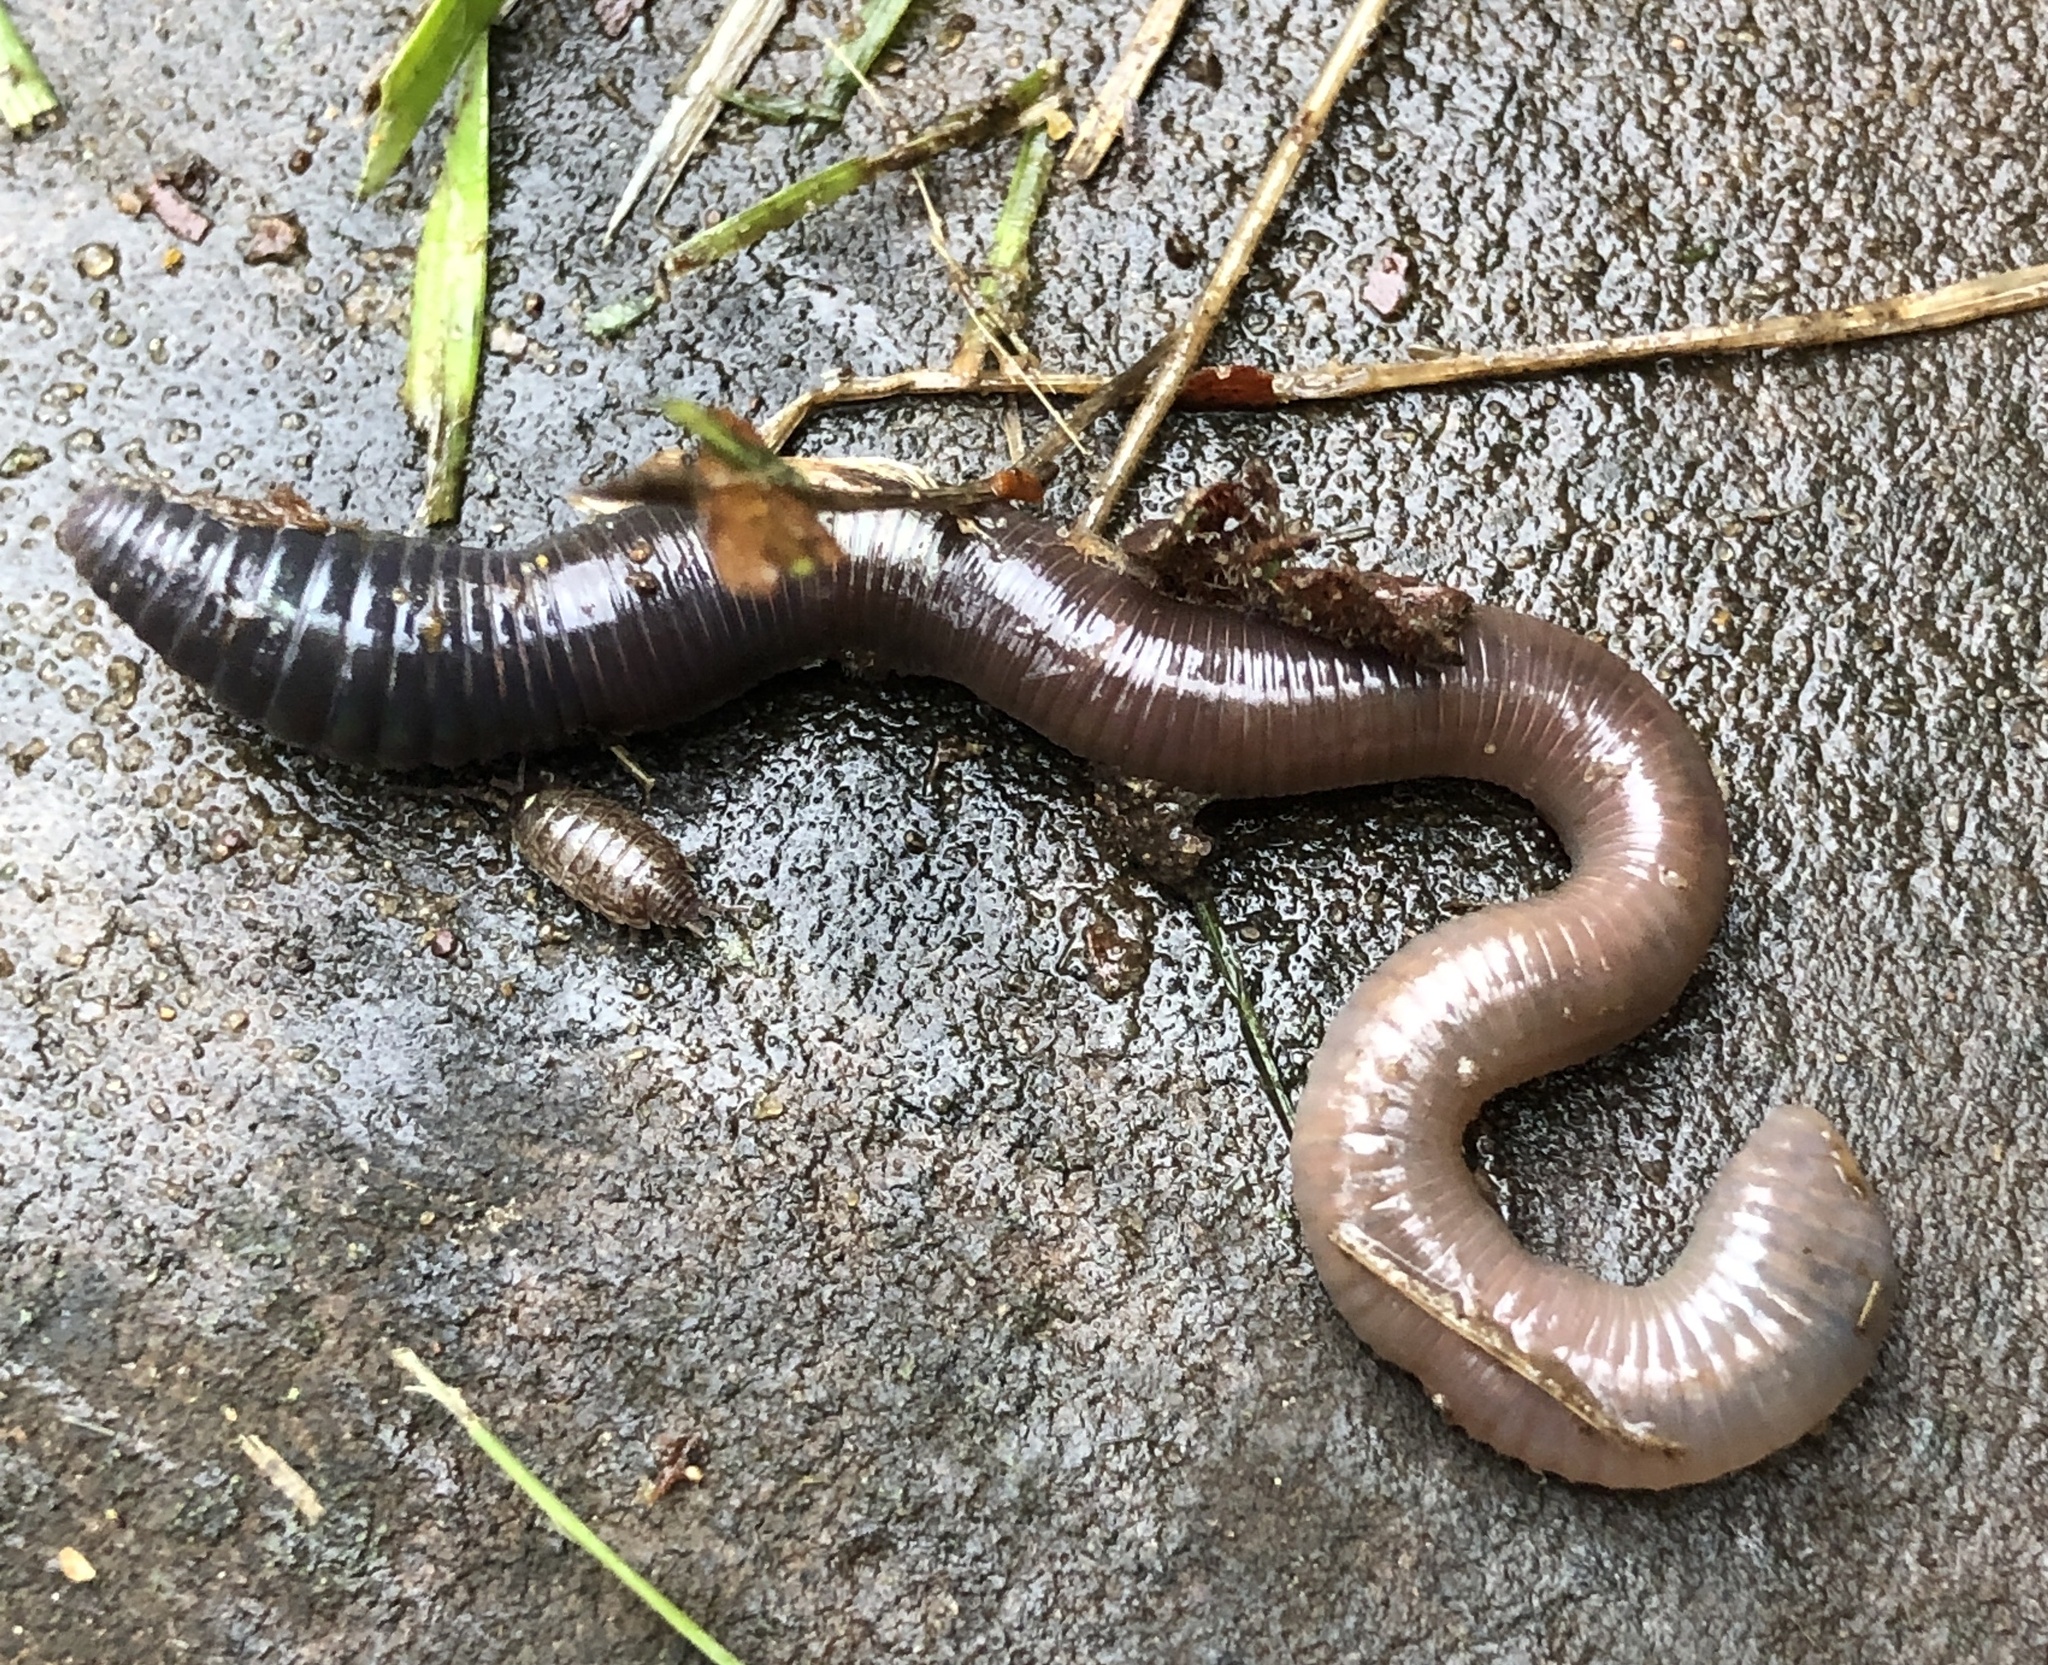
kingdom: Animalia
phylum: Annelida
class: Clitellata
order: Crassiclitellata
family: Lumbricidae
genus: Lumbricus
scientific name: Lumbricus terrestris
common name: Common earthworm
